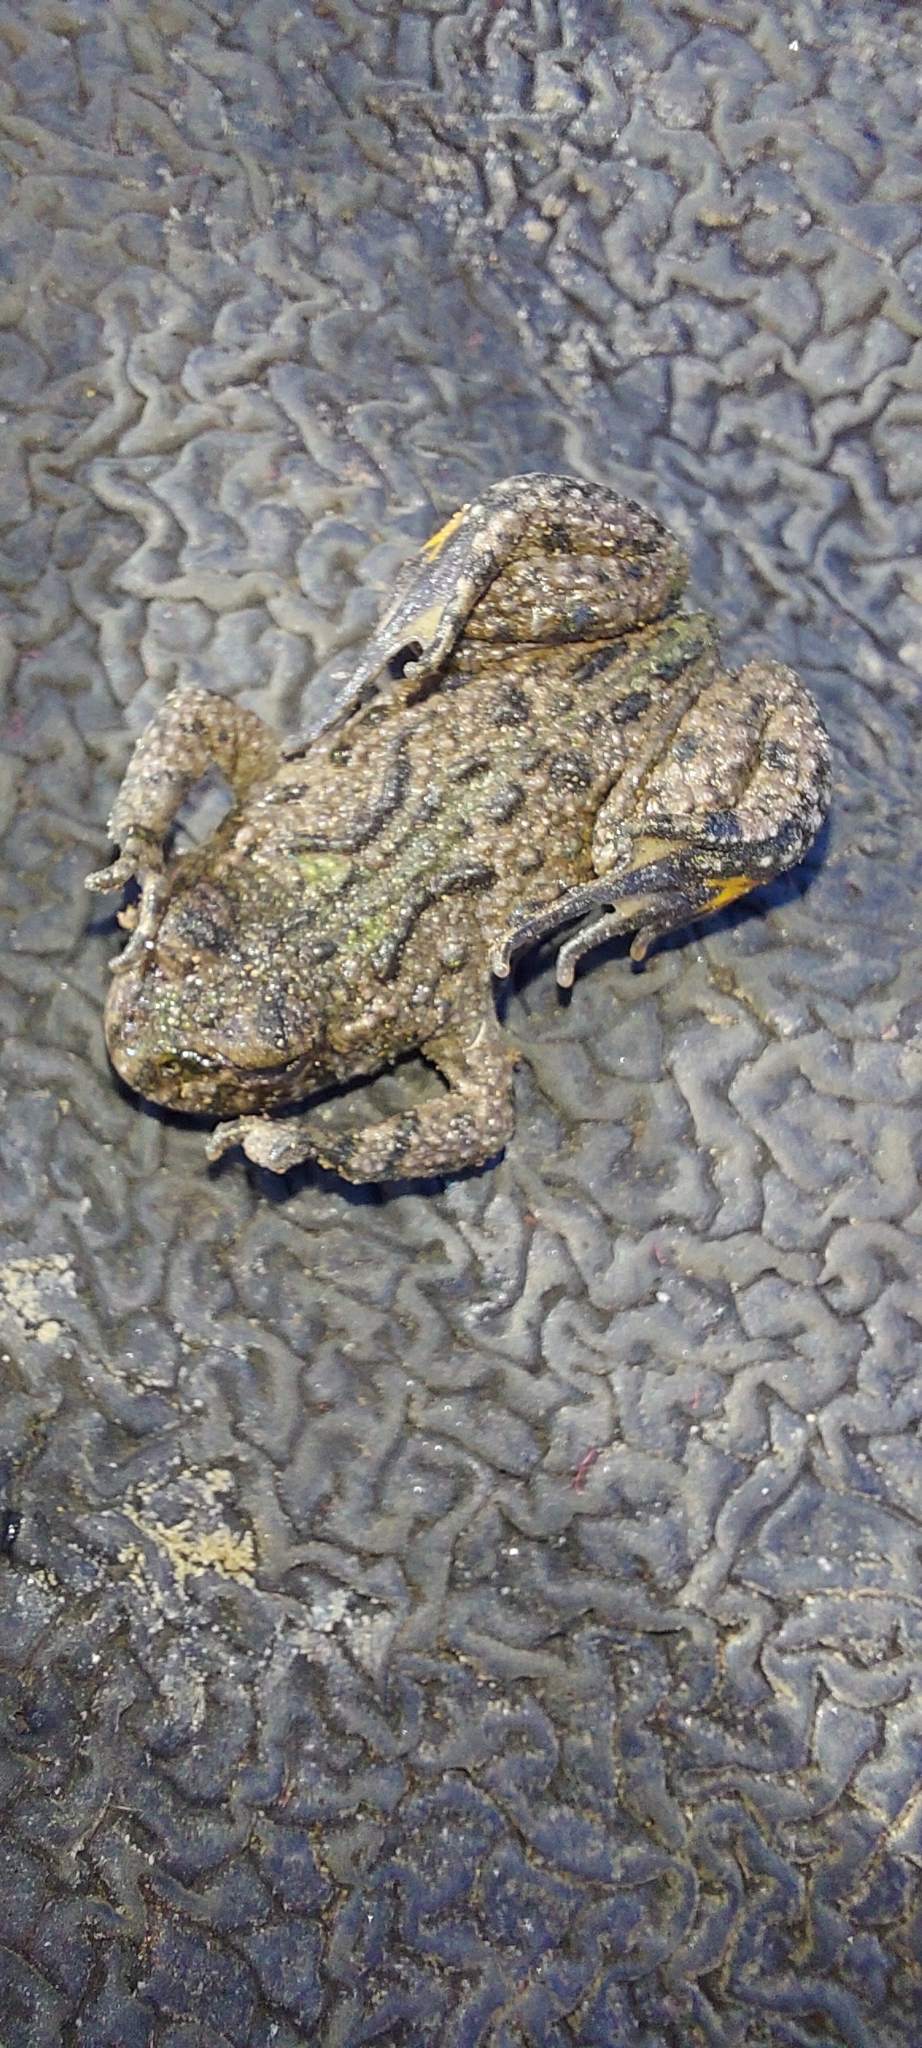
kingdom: Animalia
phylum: Chordata
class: Amphibia
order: Anura
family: Bombinatoridae
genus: Bombina
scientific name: Bombina bombina
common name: Fire-bellied toad
